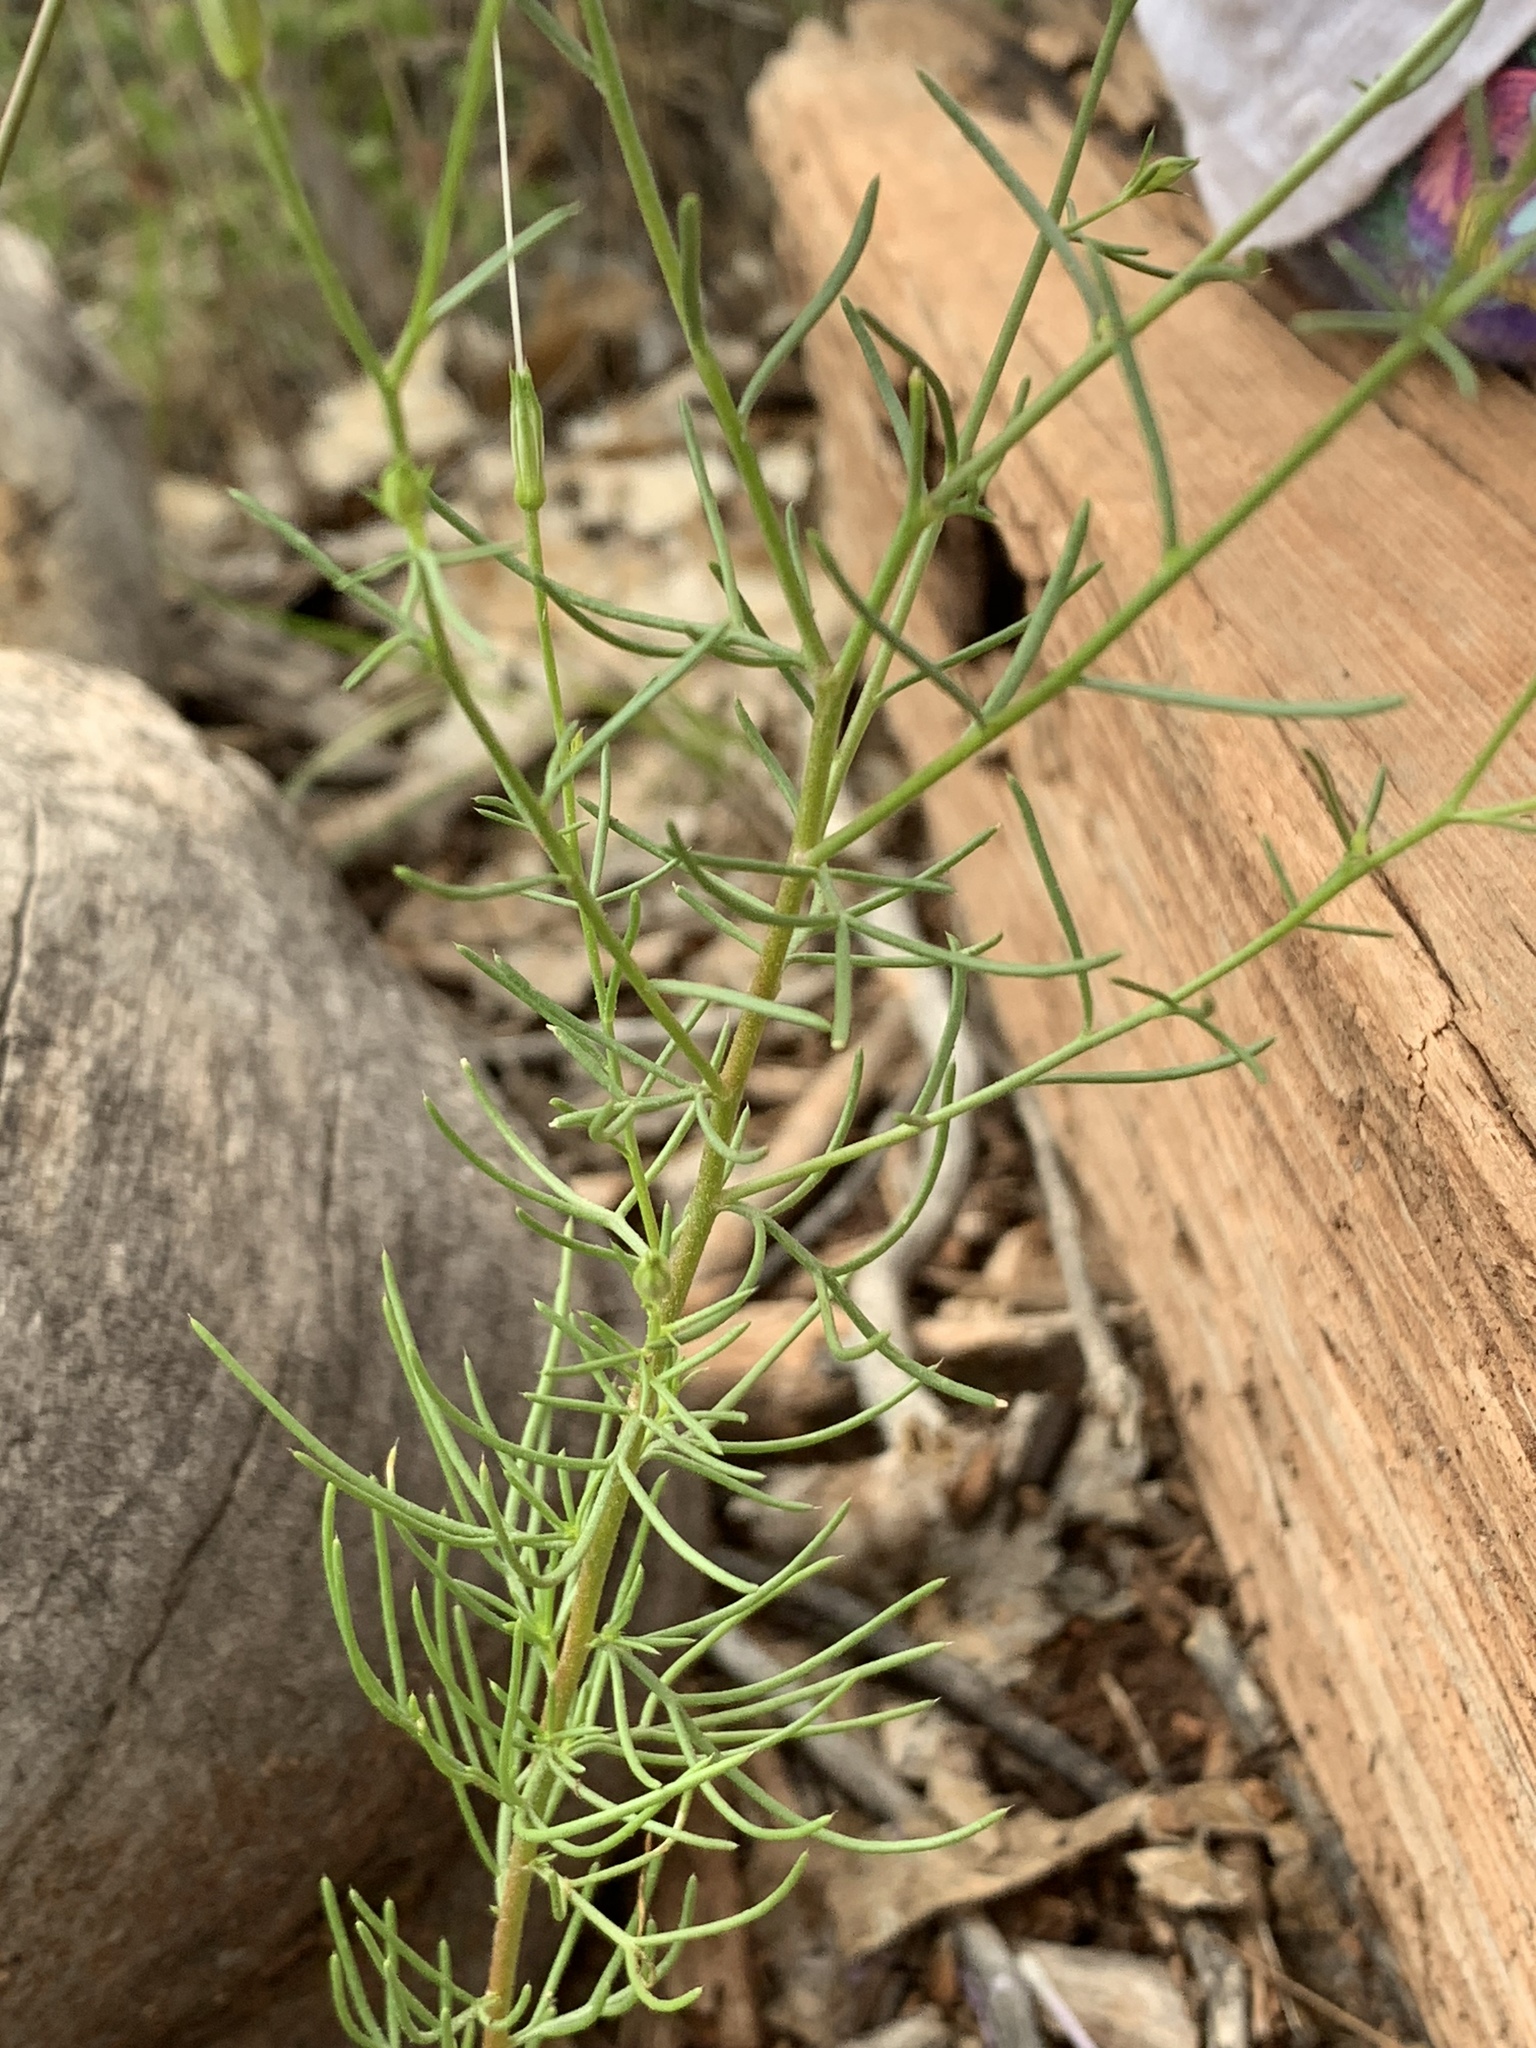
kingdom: Plantae
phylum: Tracheophyta
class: Magnoliopsida
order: Ericales
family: Polemoniaceae
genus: Ipomopsis
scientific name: Ipomopsis longiflora
